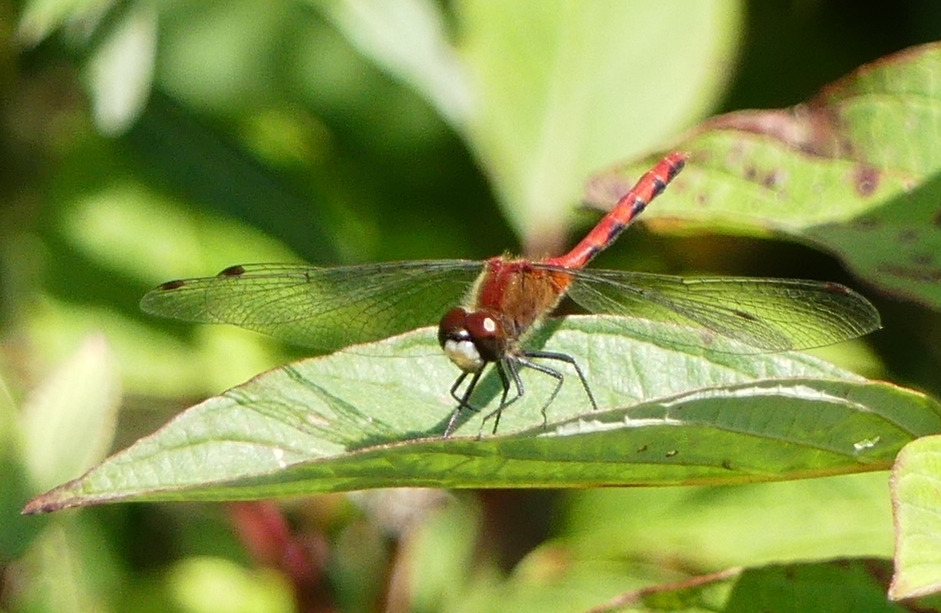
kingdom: Animalia
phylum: Arthropoda
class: Insecta
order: Odonata
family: Libellulidae
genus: Sympetrum
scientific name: Sympetrum obtrusum
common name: White-faced meadowhawk
